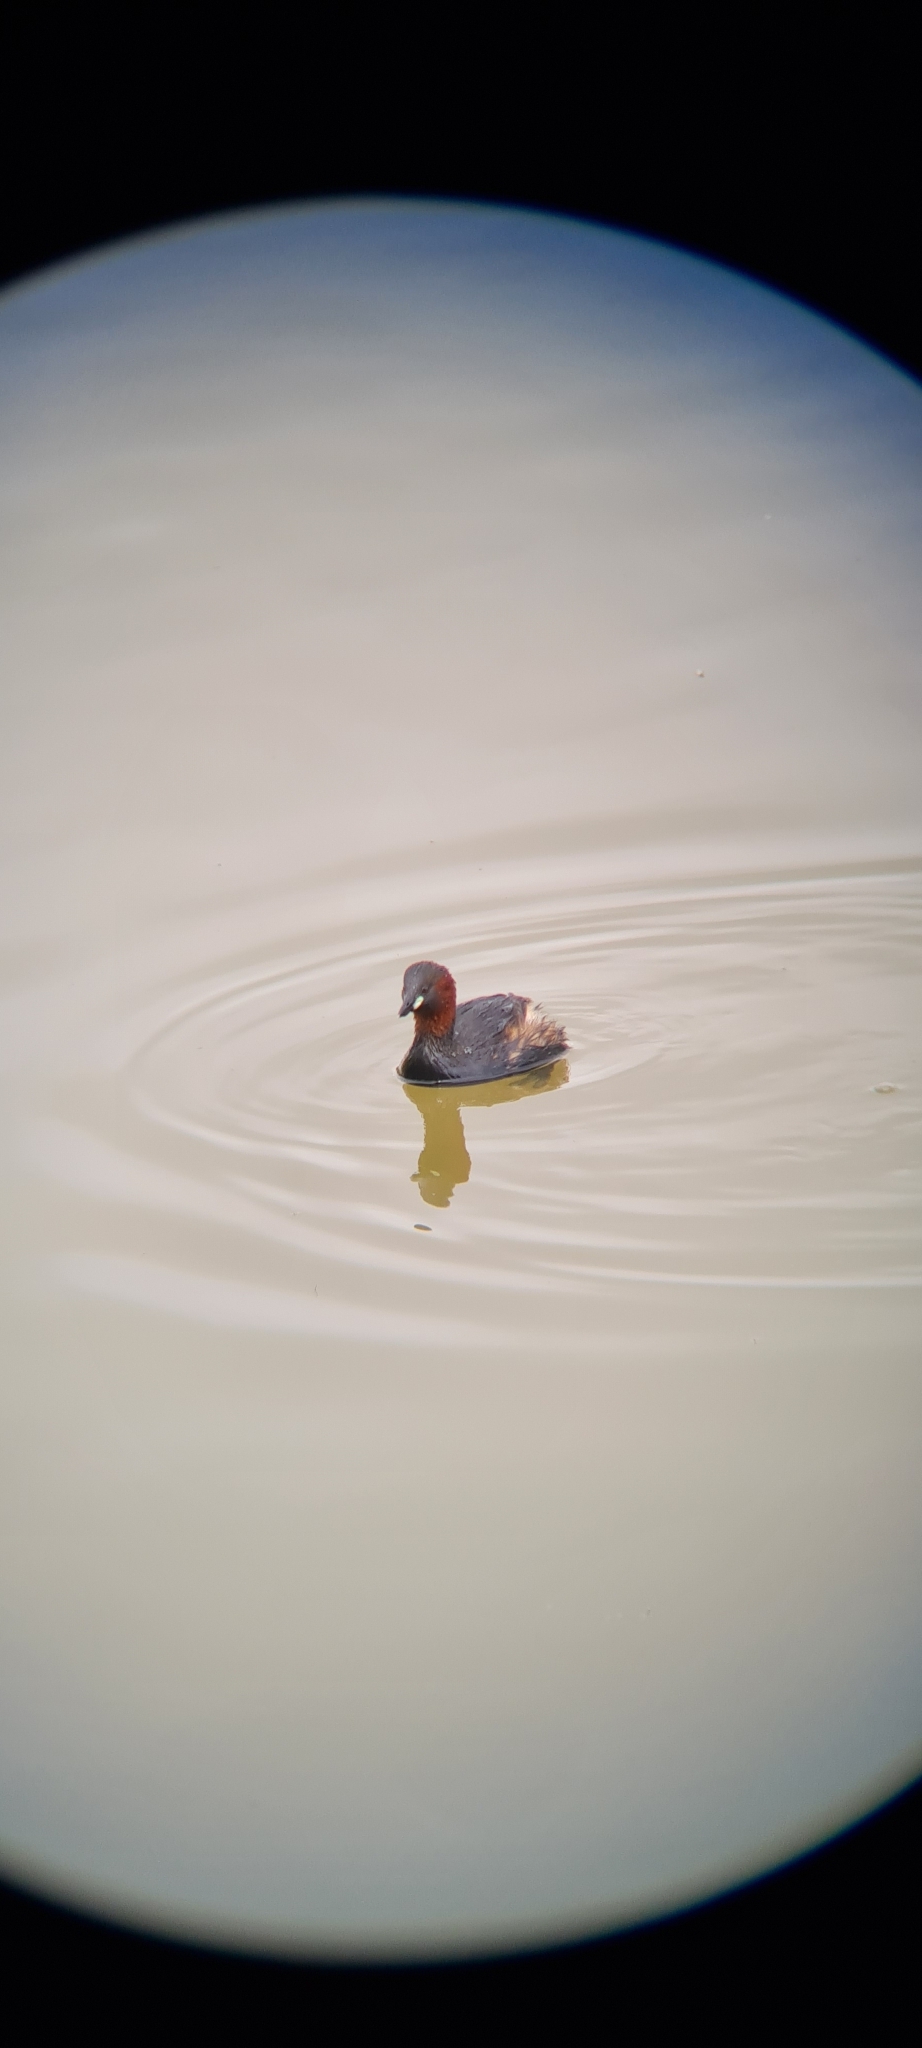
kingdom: Animalia
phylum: Chordata
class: Aves
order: Podicipediformes
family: Podicipedidae
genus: Tachybaptus
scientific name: Tachybaptus ruficollis
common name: Little grebe
